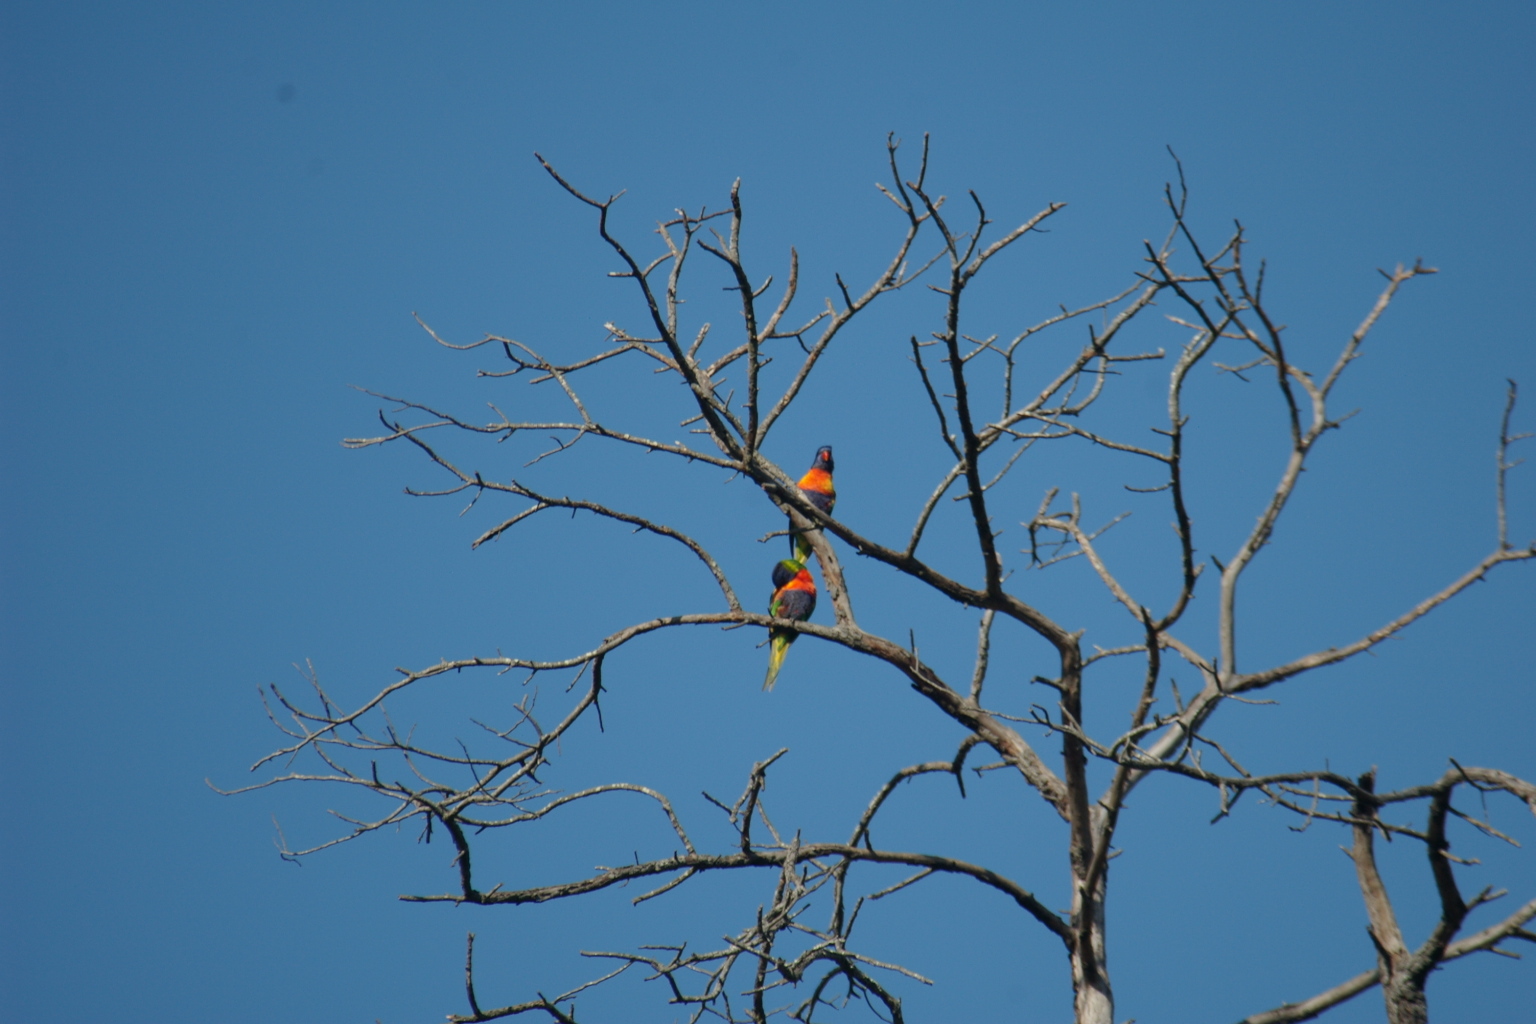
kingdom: Animalia
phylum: Chordata
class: Aves
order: Psittaciformes
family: Psittacidae
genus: Trichoglossus
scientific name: Trichoglossus haematodus
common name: Coconut lorikeet
